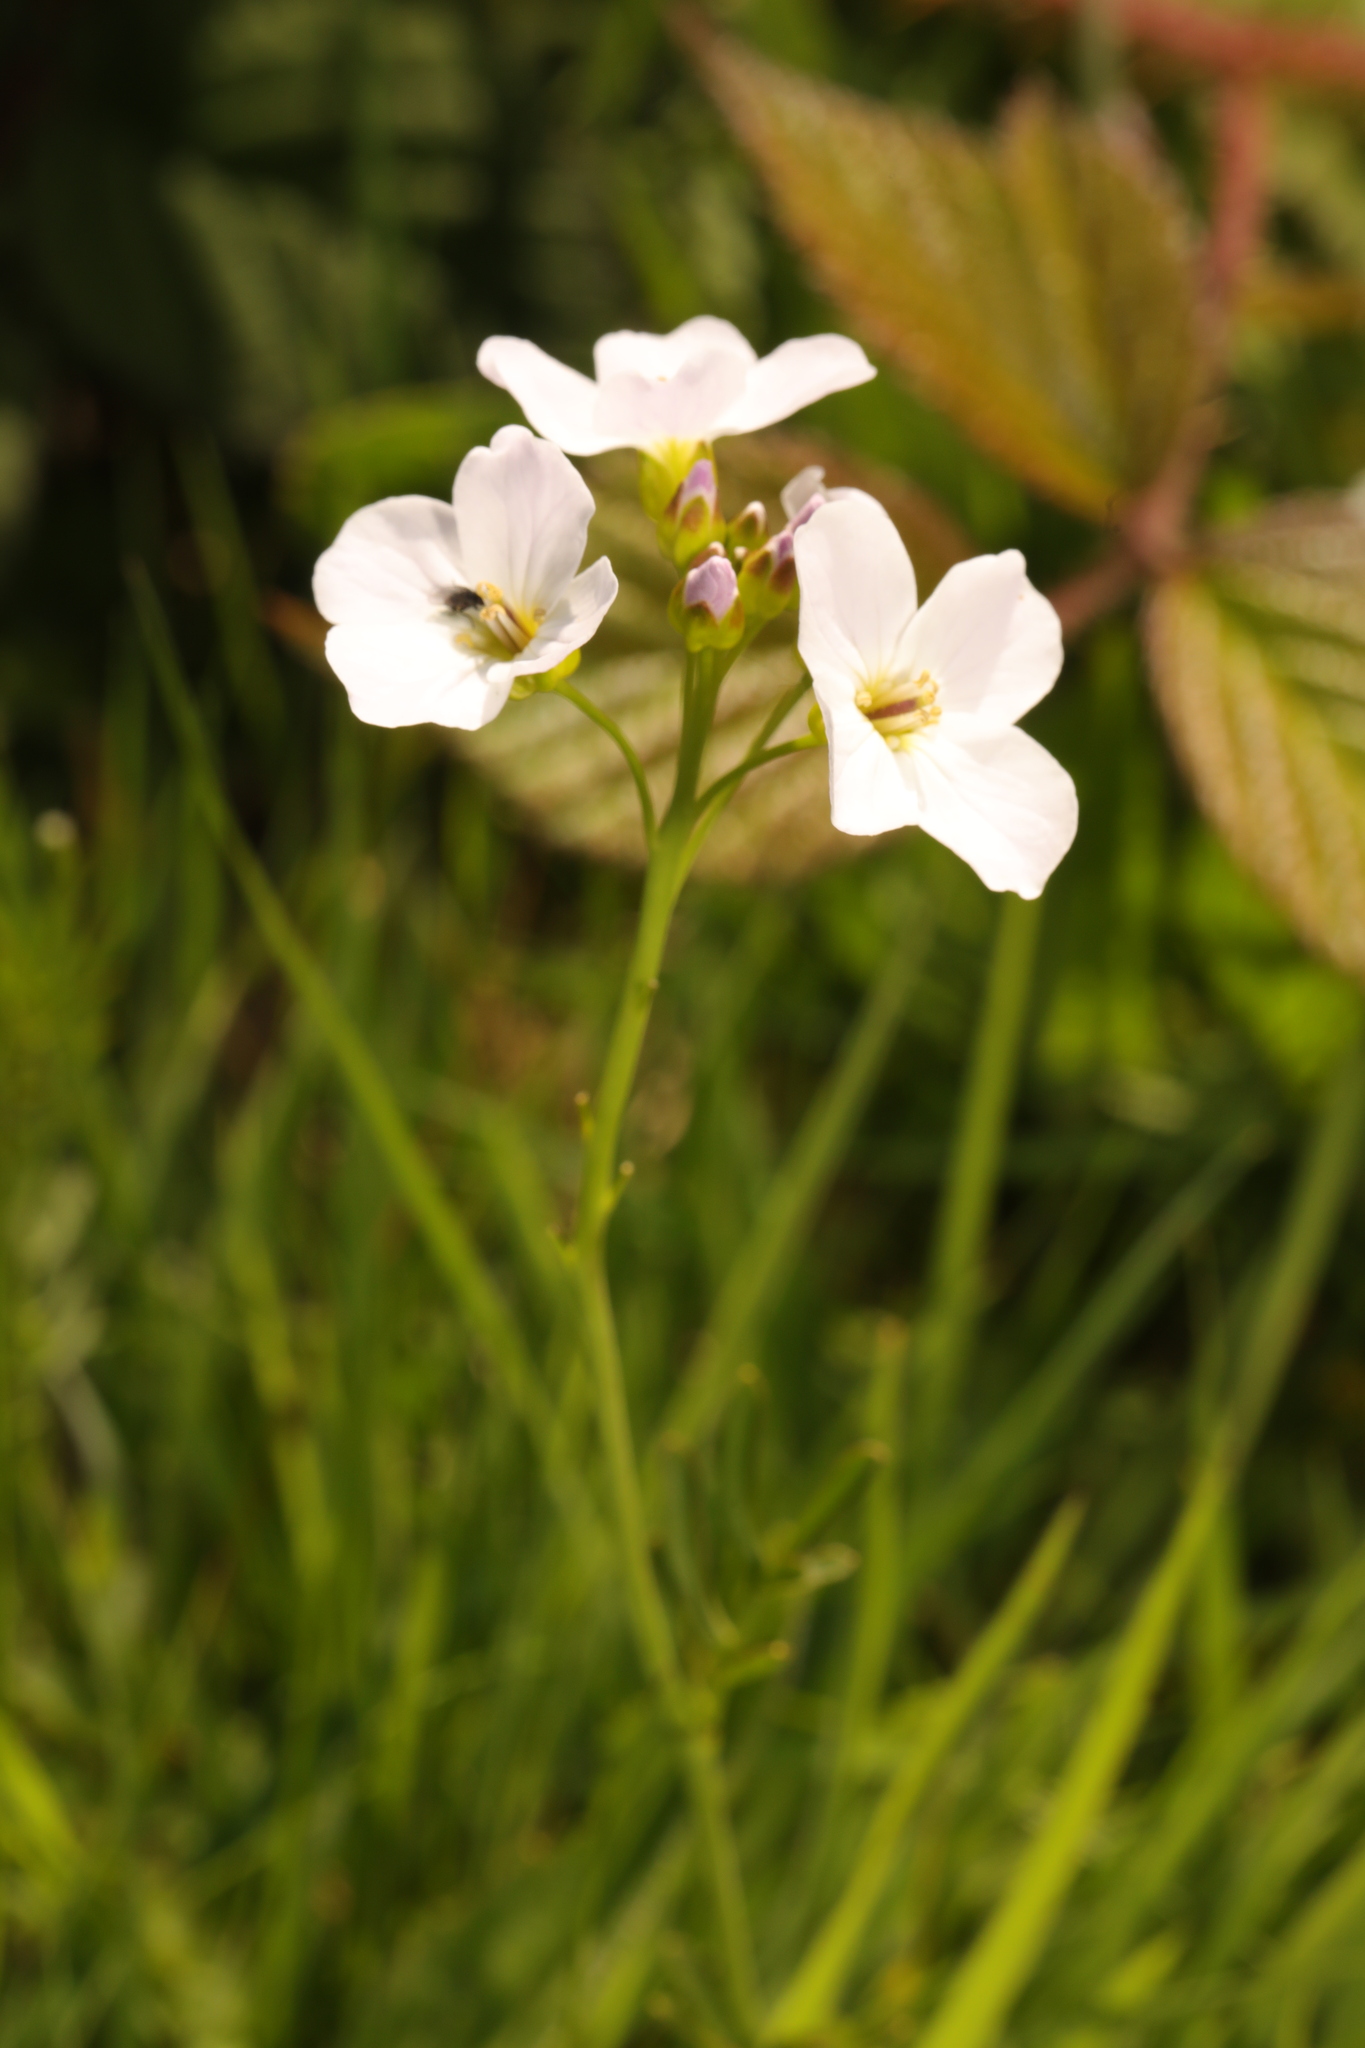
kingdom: Plantae
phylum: Tracheophyta
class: Magnoliopsida
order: Brassicales
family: Brassicaceae
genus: Cardamine
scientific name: Cardamine pratensis
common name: Cuckoo flower
